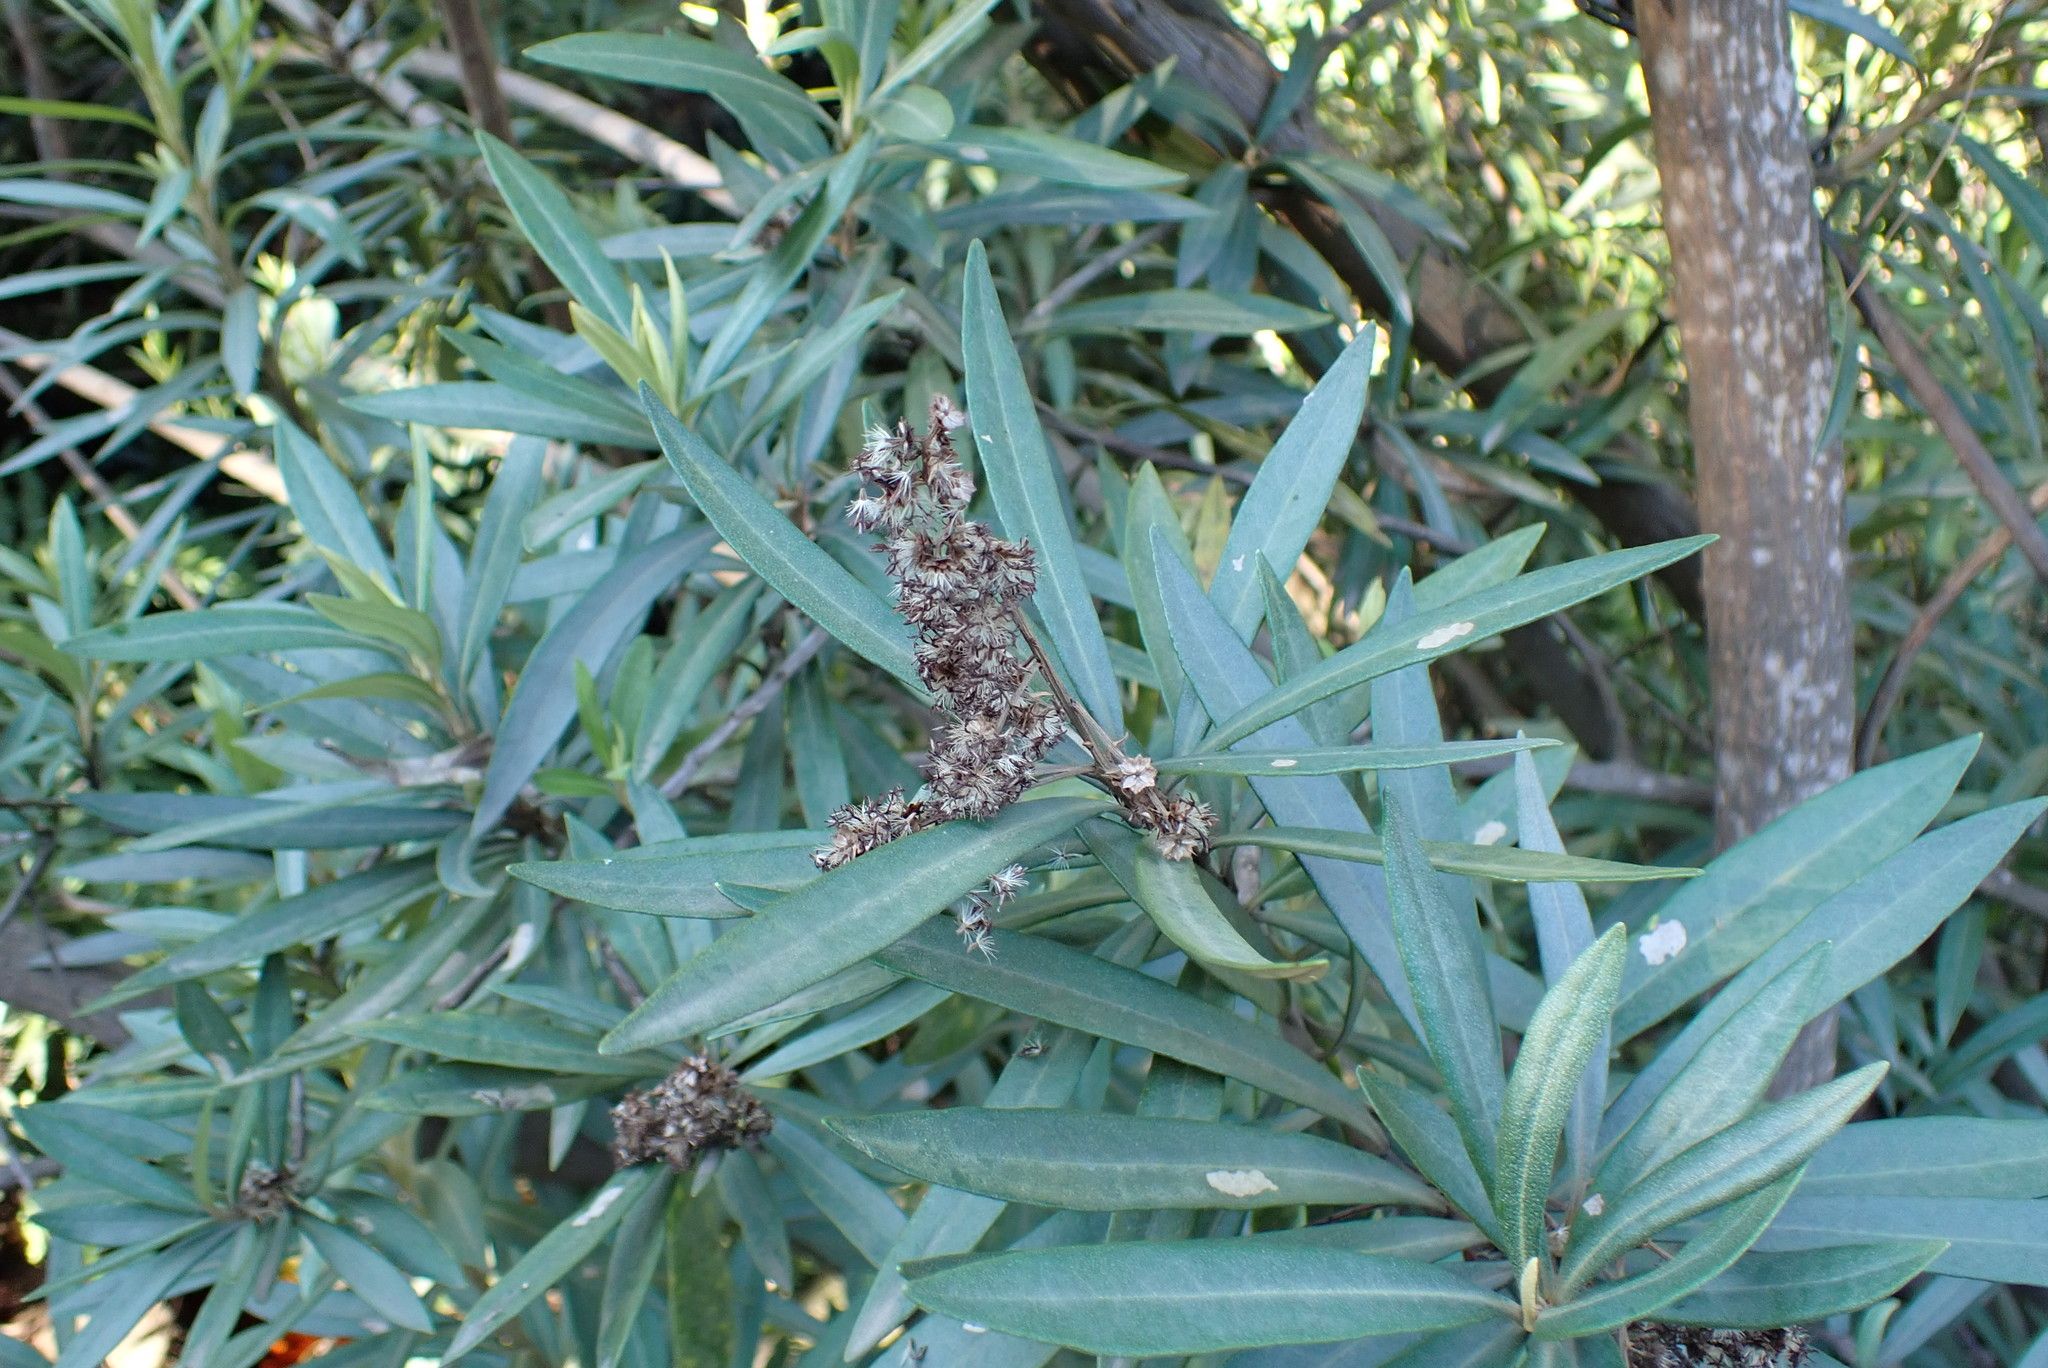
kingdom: Plantae
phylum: Tracheophyta
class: Magnoliopsida
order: Asterales
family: Asteraceae
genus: Brachylaena
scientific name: Brachylaena neriifolia
